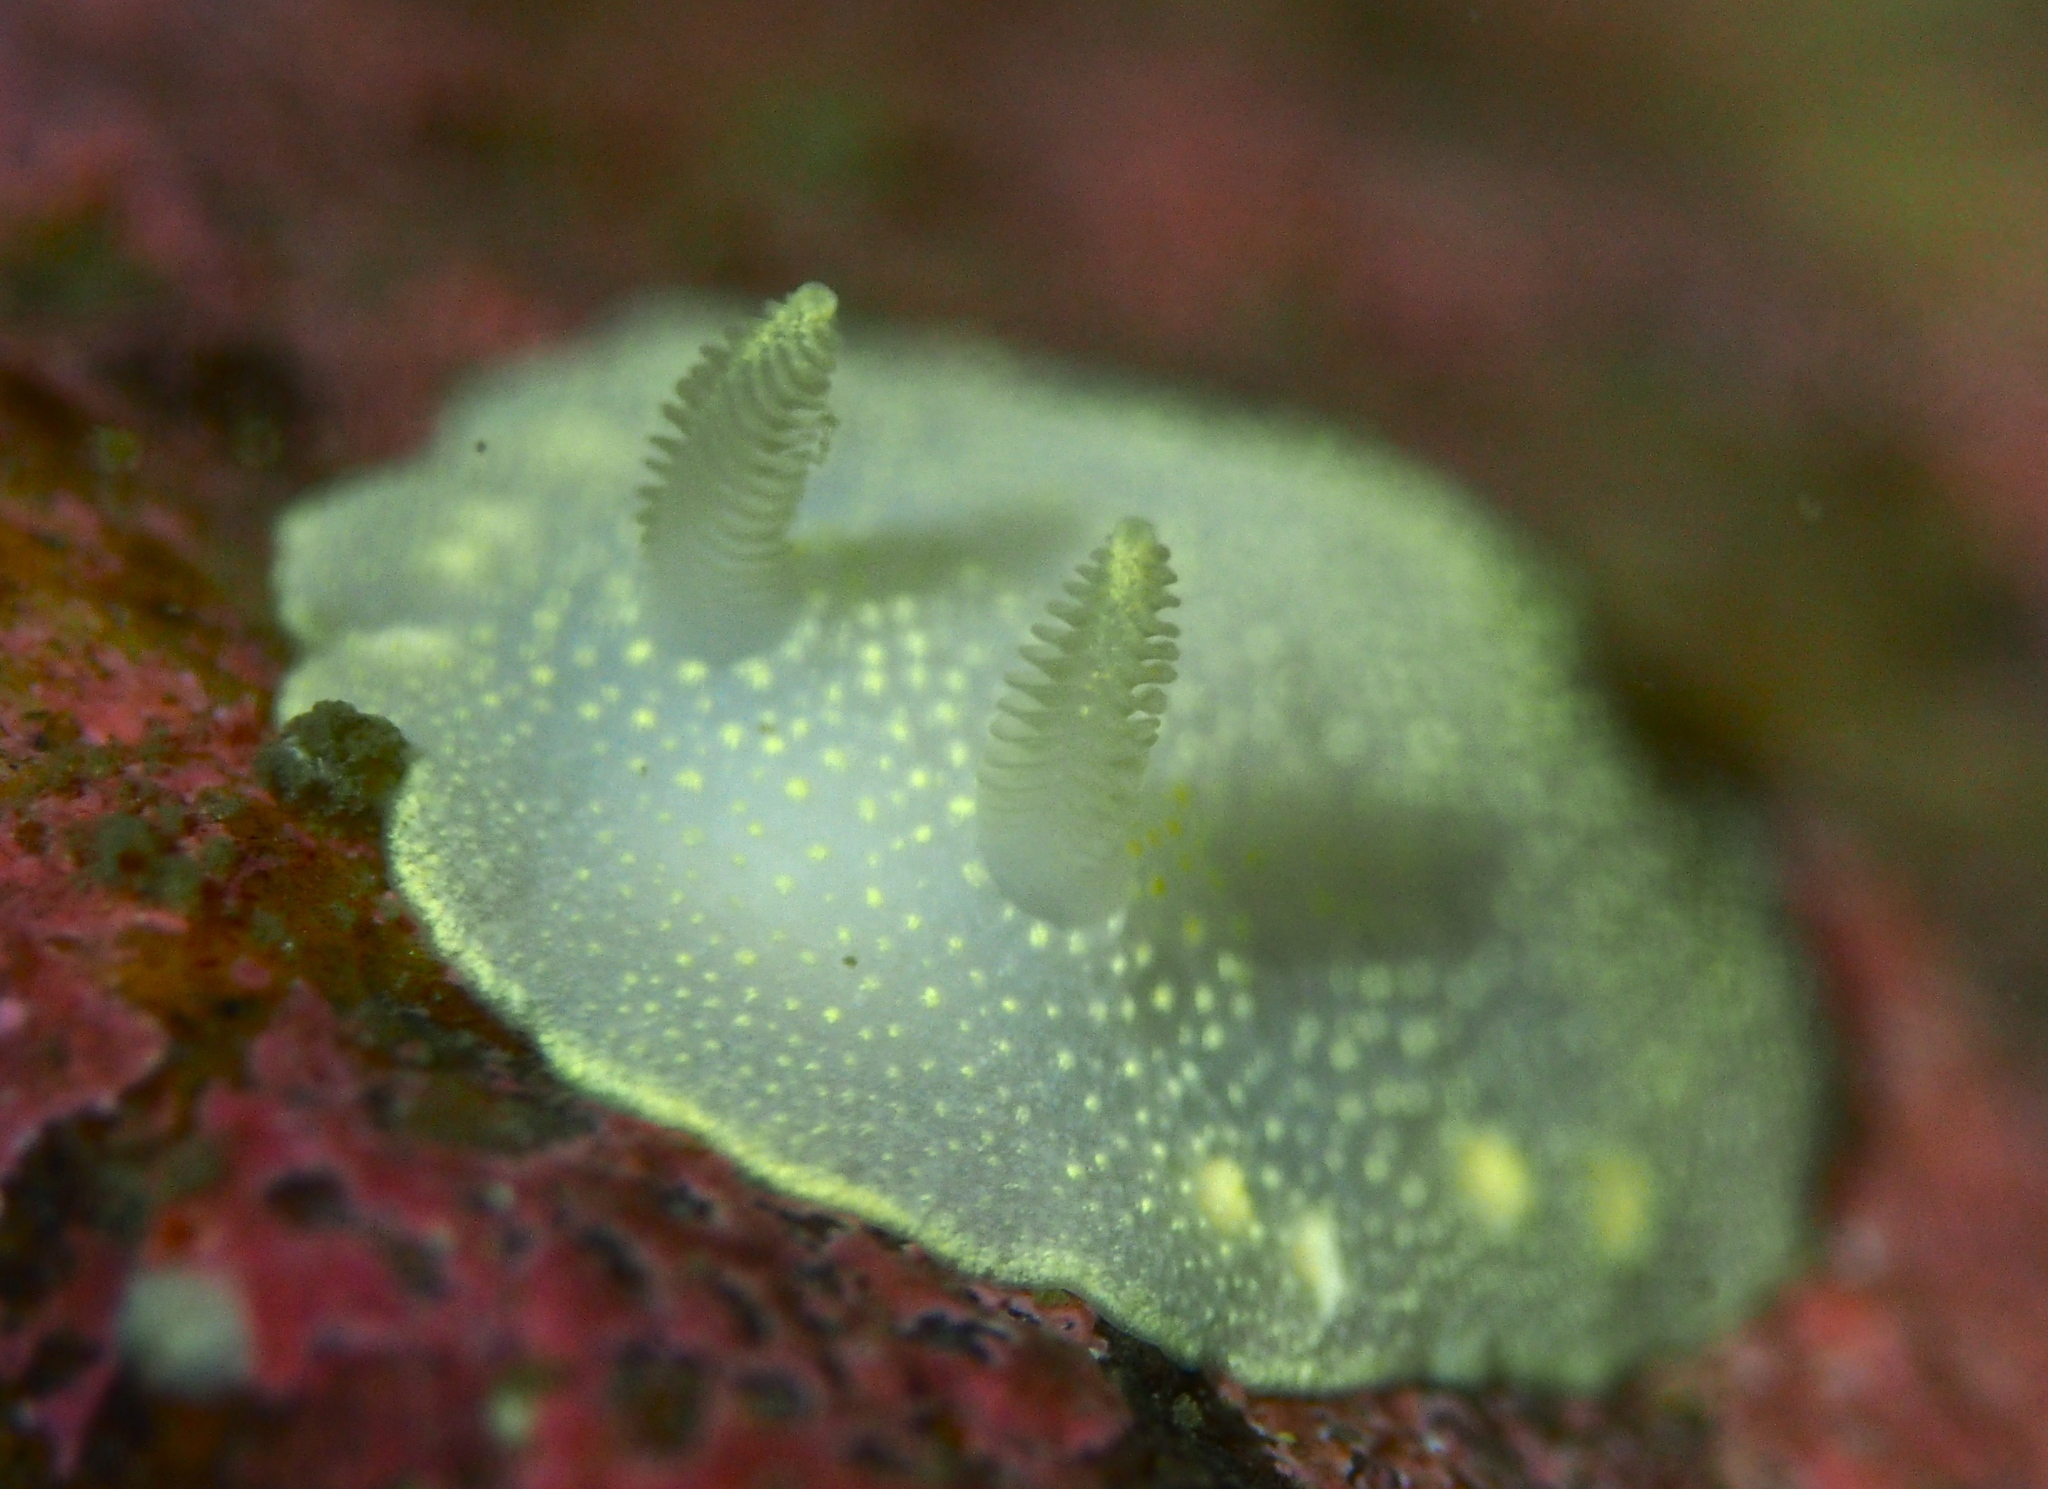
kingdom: Animalia
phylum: Mollusca
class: Gastropoda
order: Nudibranchia
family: Cadlinidae
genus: Cadlina
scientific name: Cadlina laevis
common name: White atlantic cadlina
